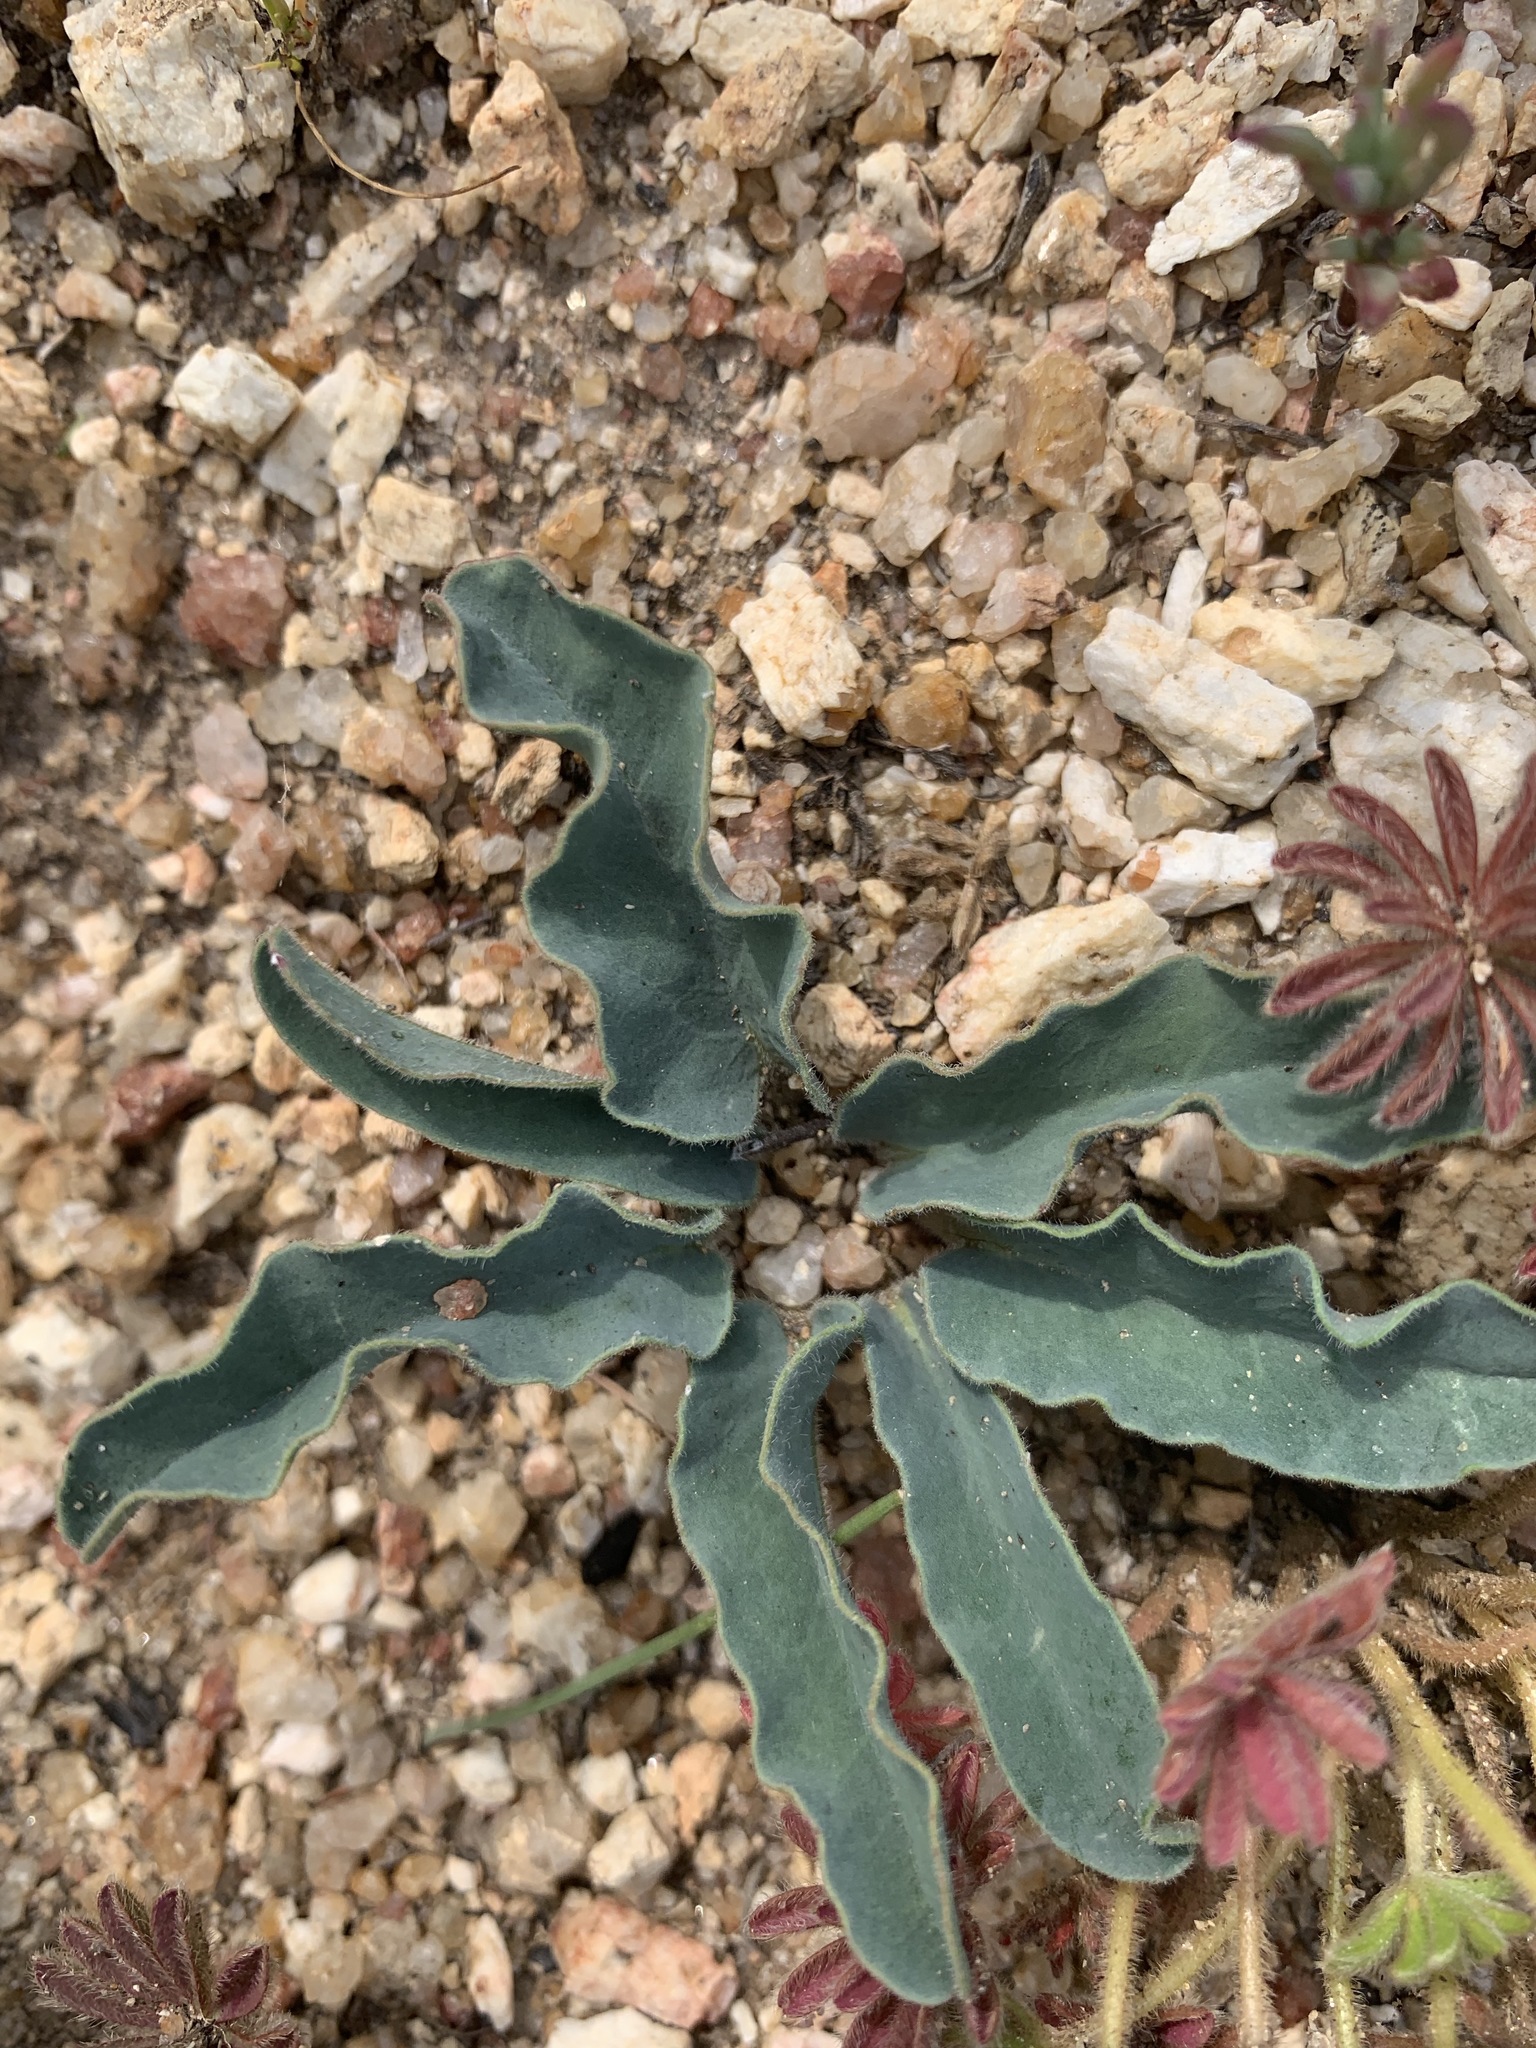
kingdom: Plantae
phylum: Tracheophyta
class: Magnoliopsida
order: Malpighiales
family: Euphorbiaceae
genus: Euphorbia
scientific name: Euphorbia tuberosa
